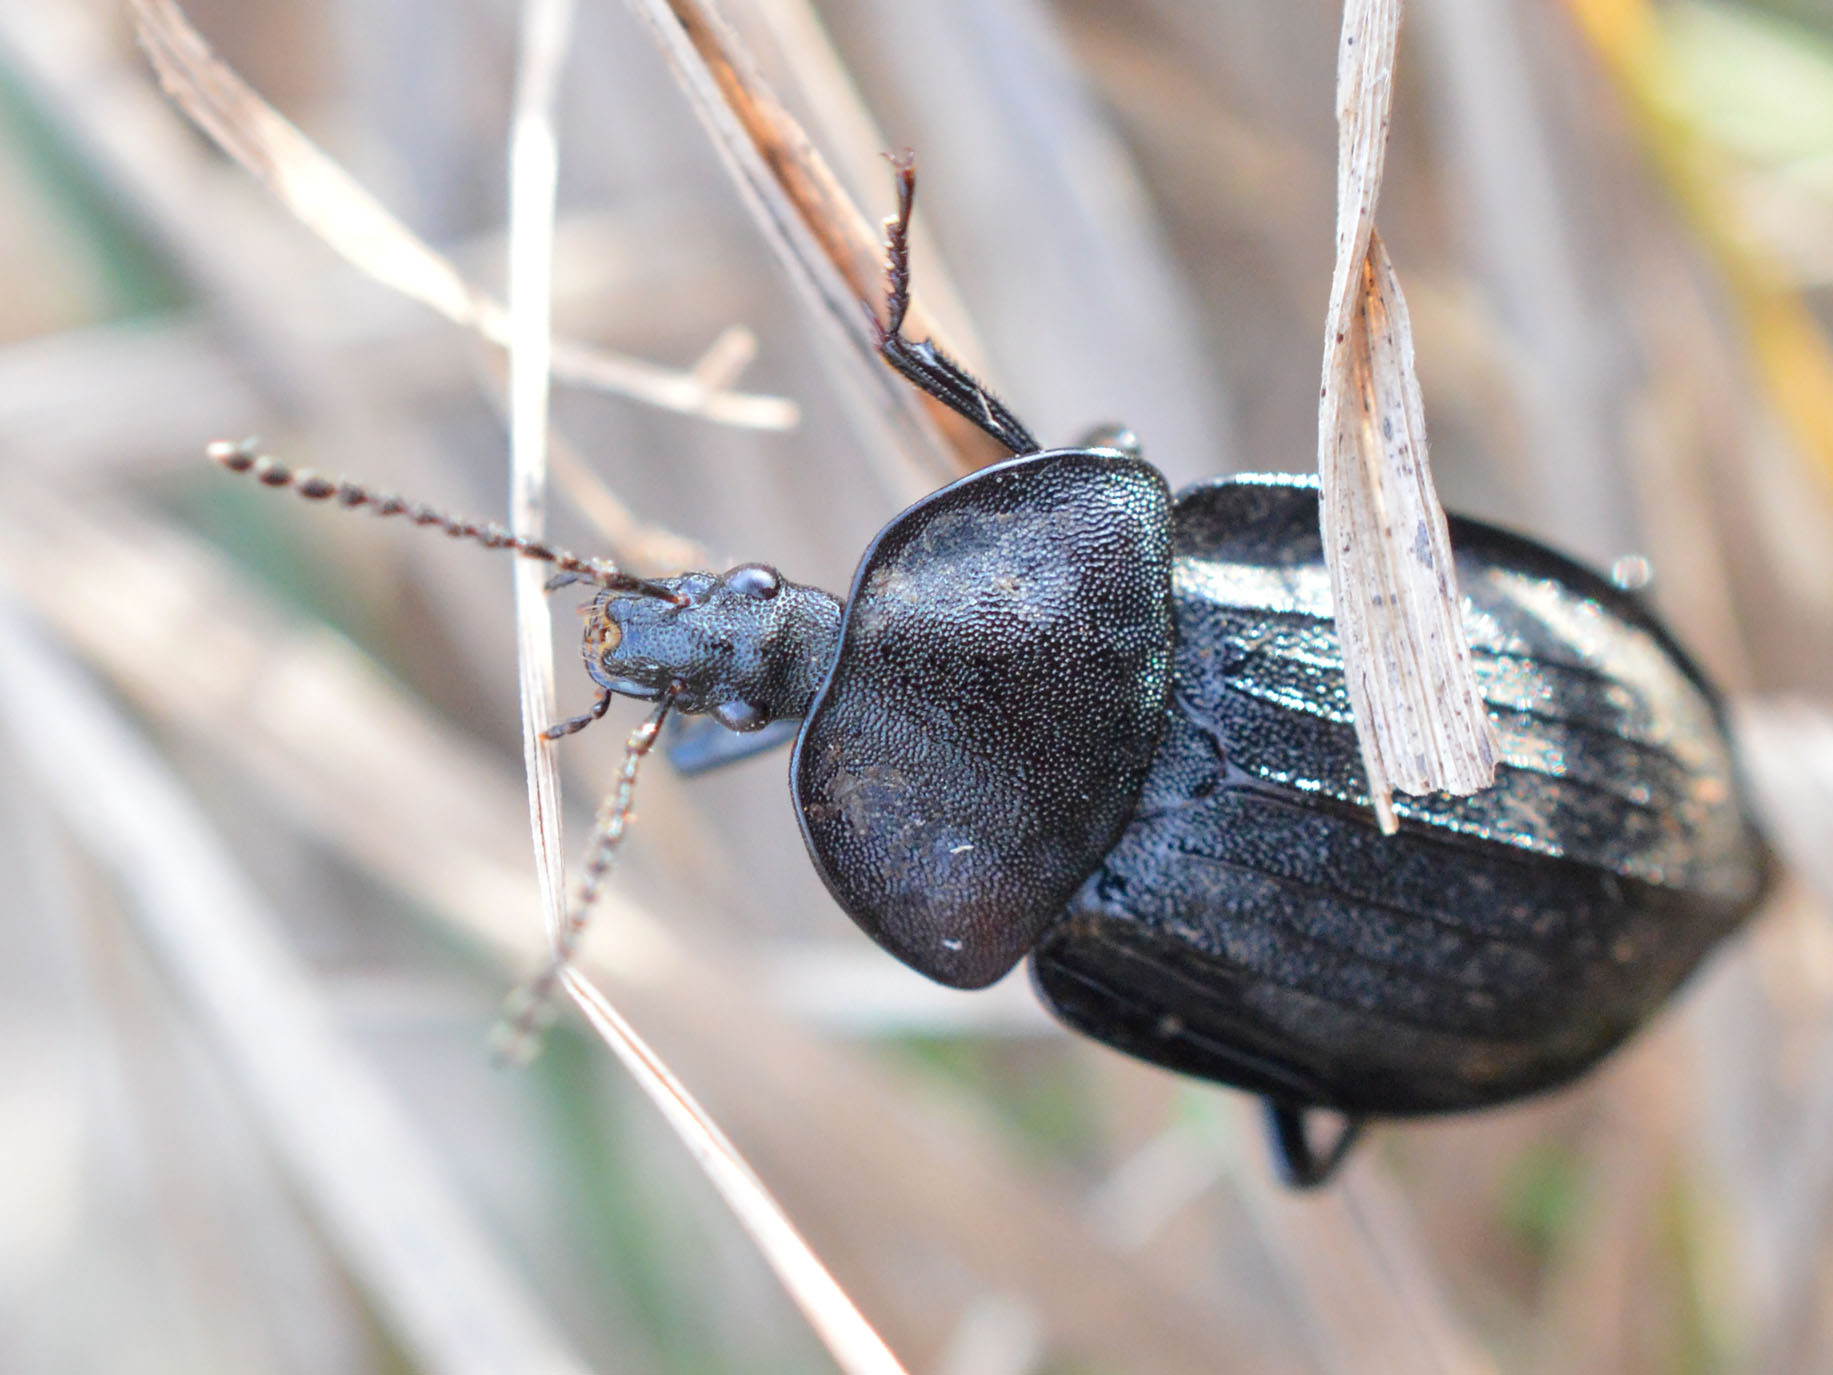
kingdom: Animalia
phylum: Arthropoda
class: Insecta
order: Coleoptera
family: Staphylinidae
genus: Silpha
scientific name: Silpha atrata
